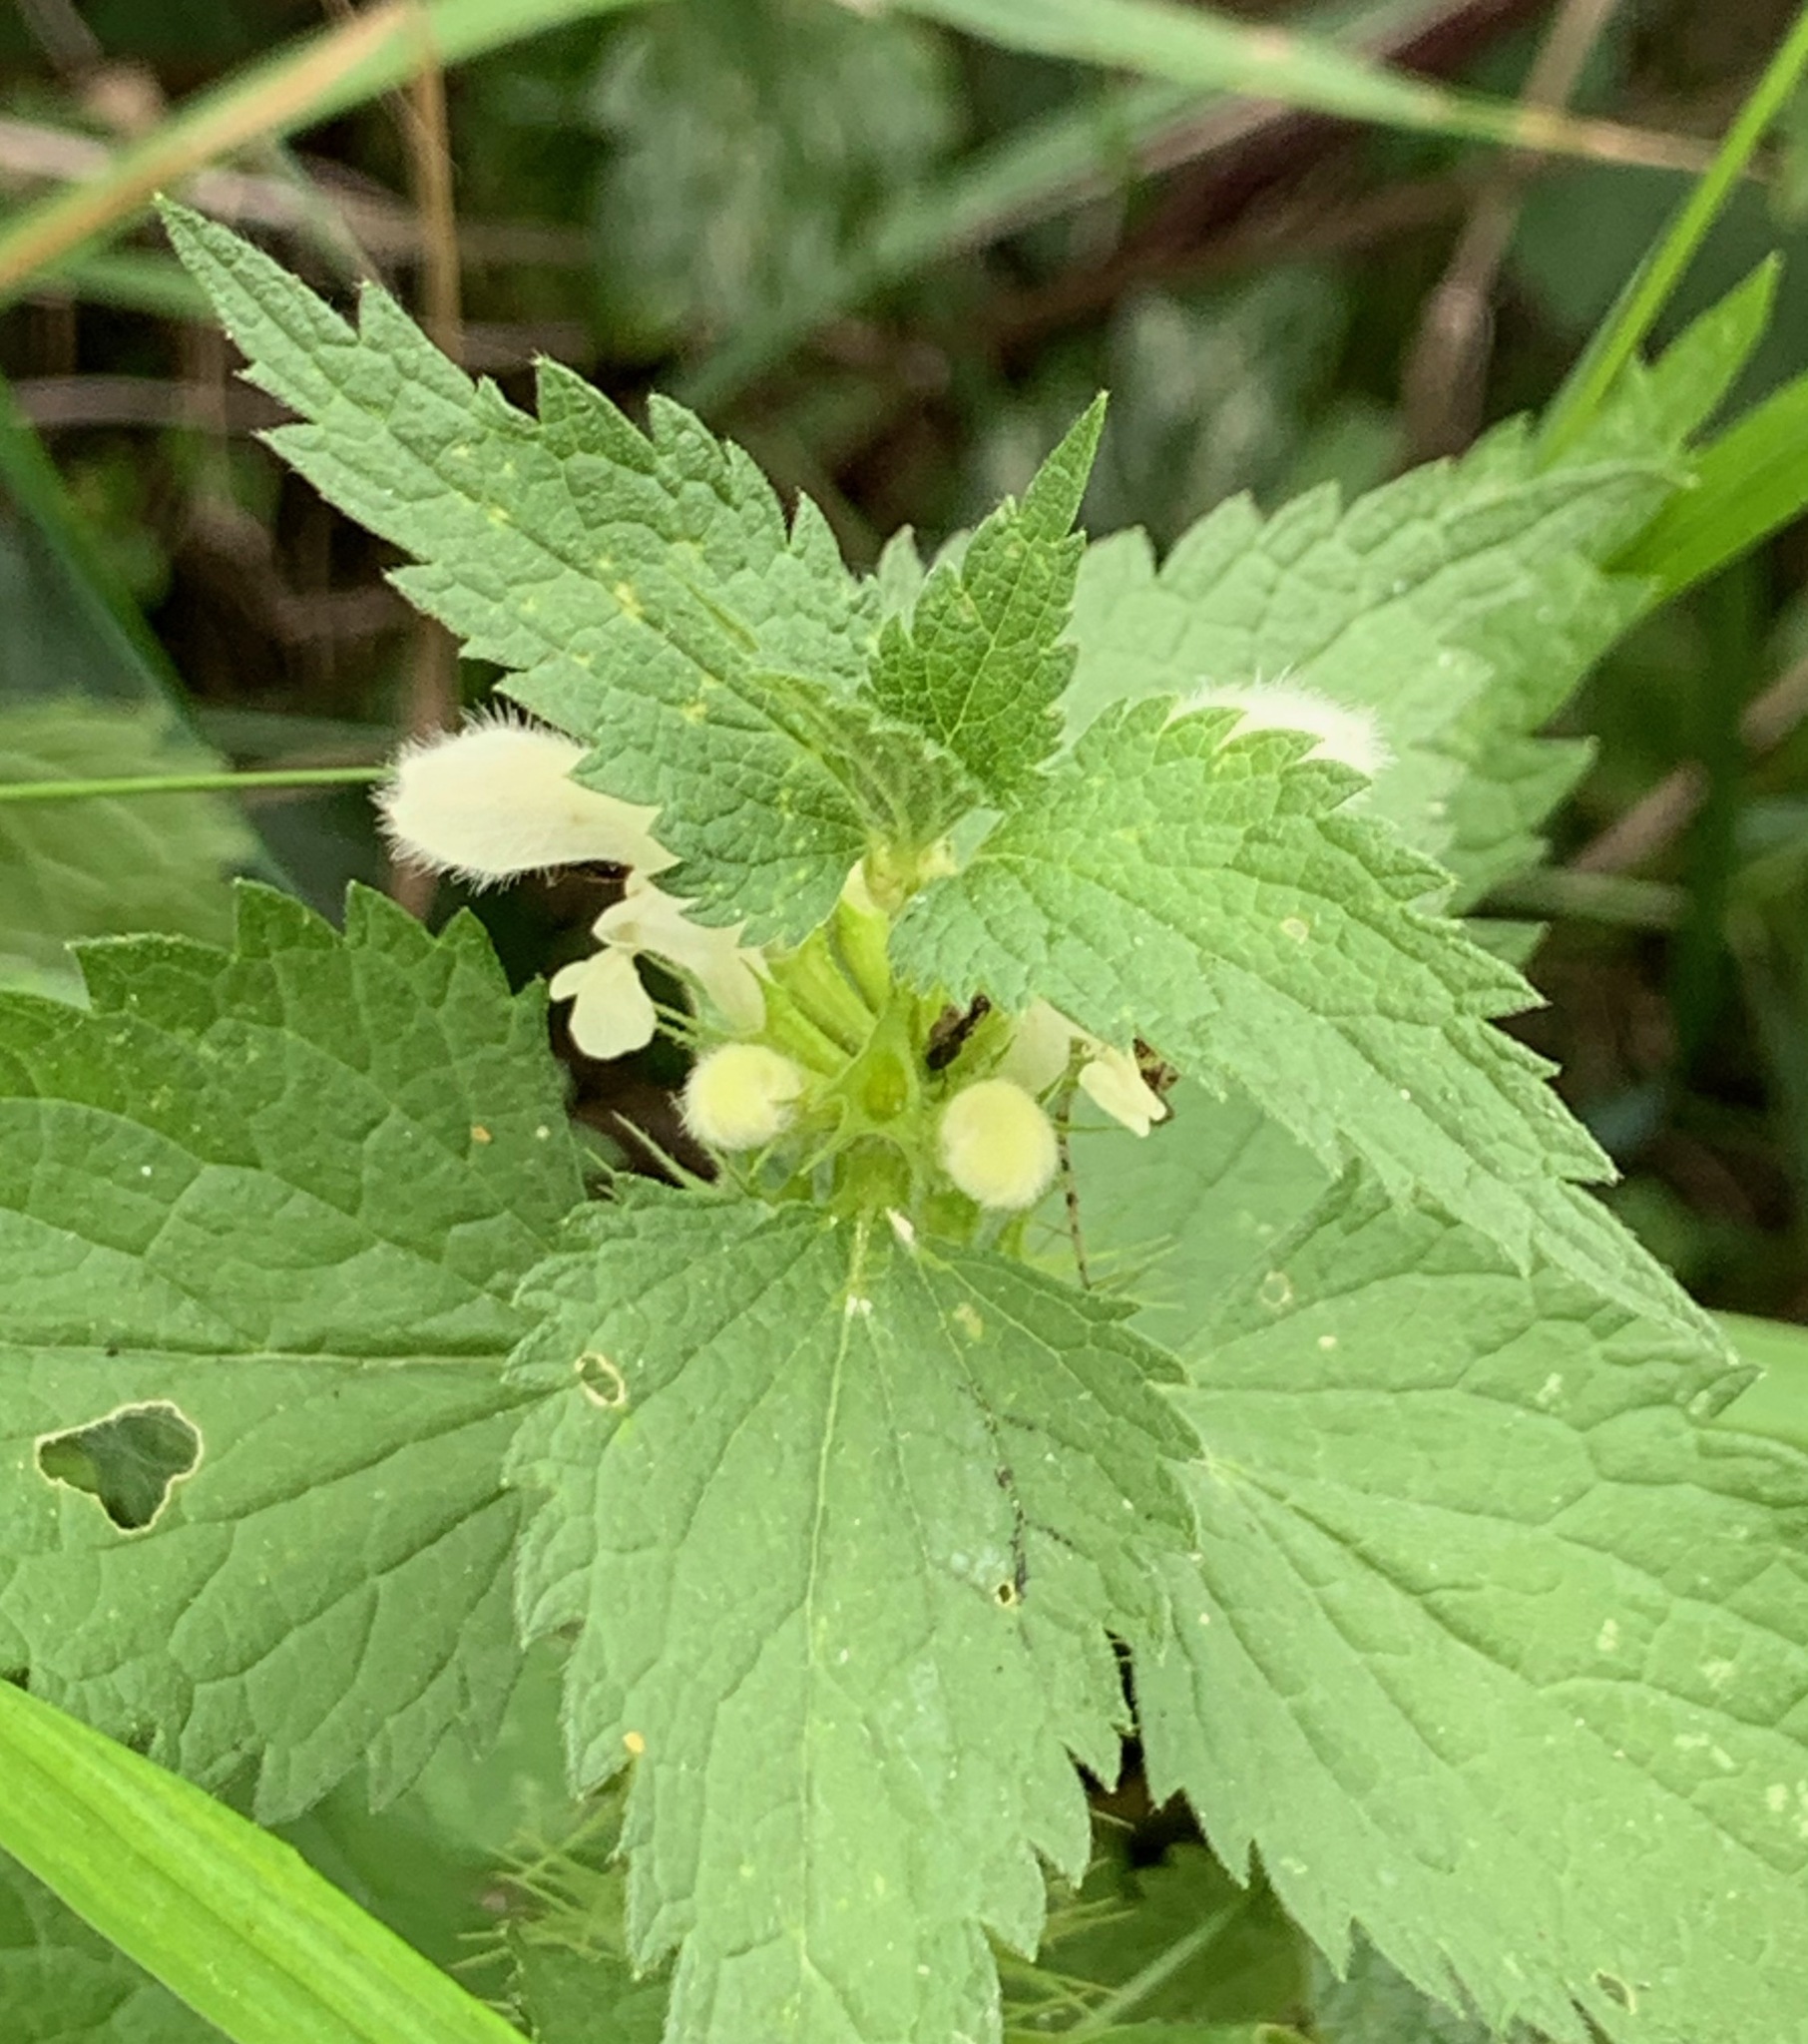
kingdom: Plantae
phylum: Tracheophyta
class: Magnoliopsida
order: Lamiales
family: Lamiaceae
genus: Lamium
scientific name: Lamium album
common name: White dead-nettle
